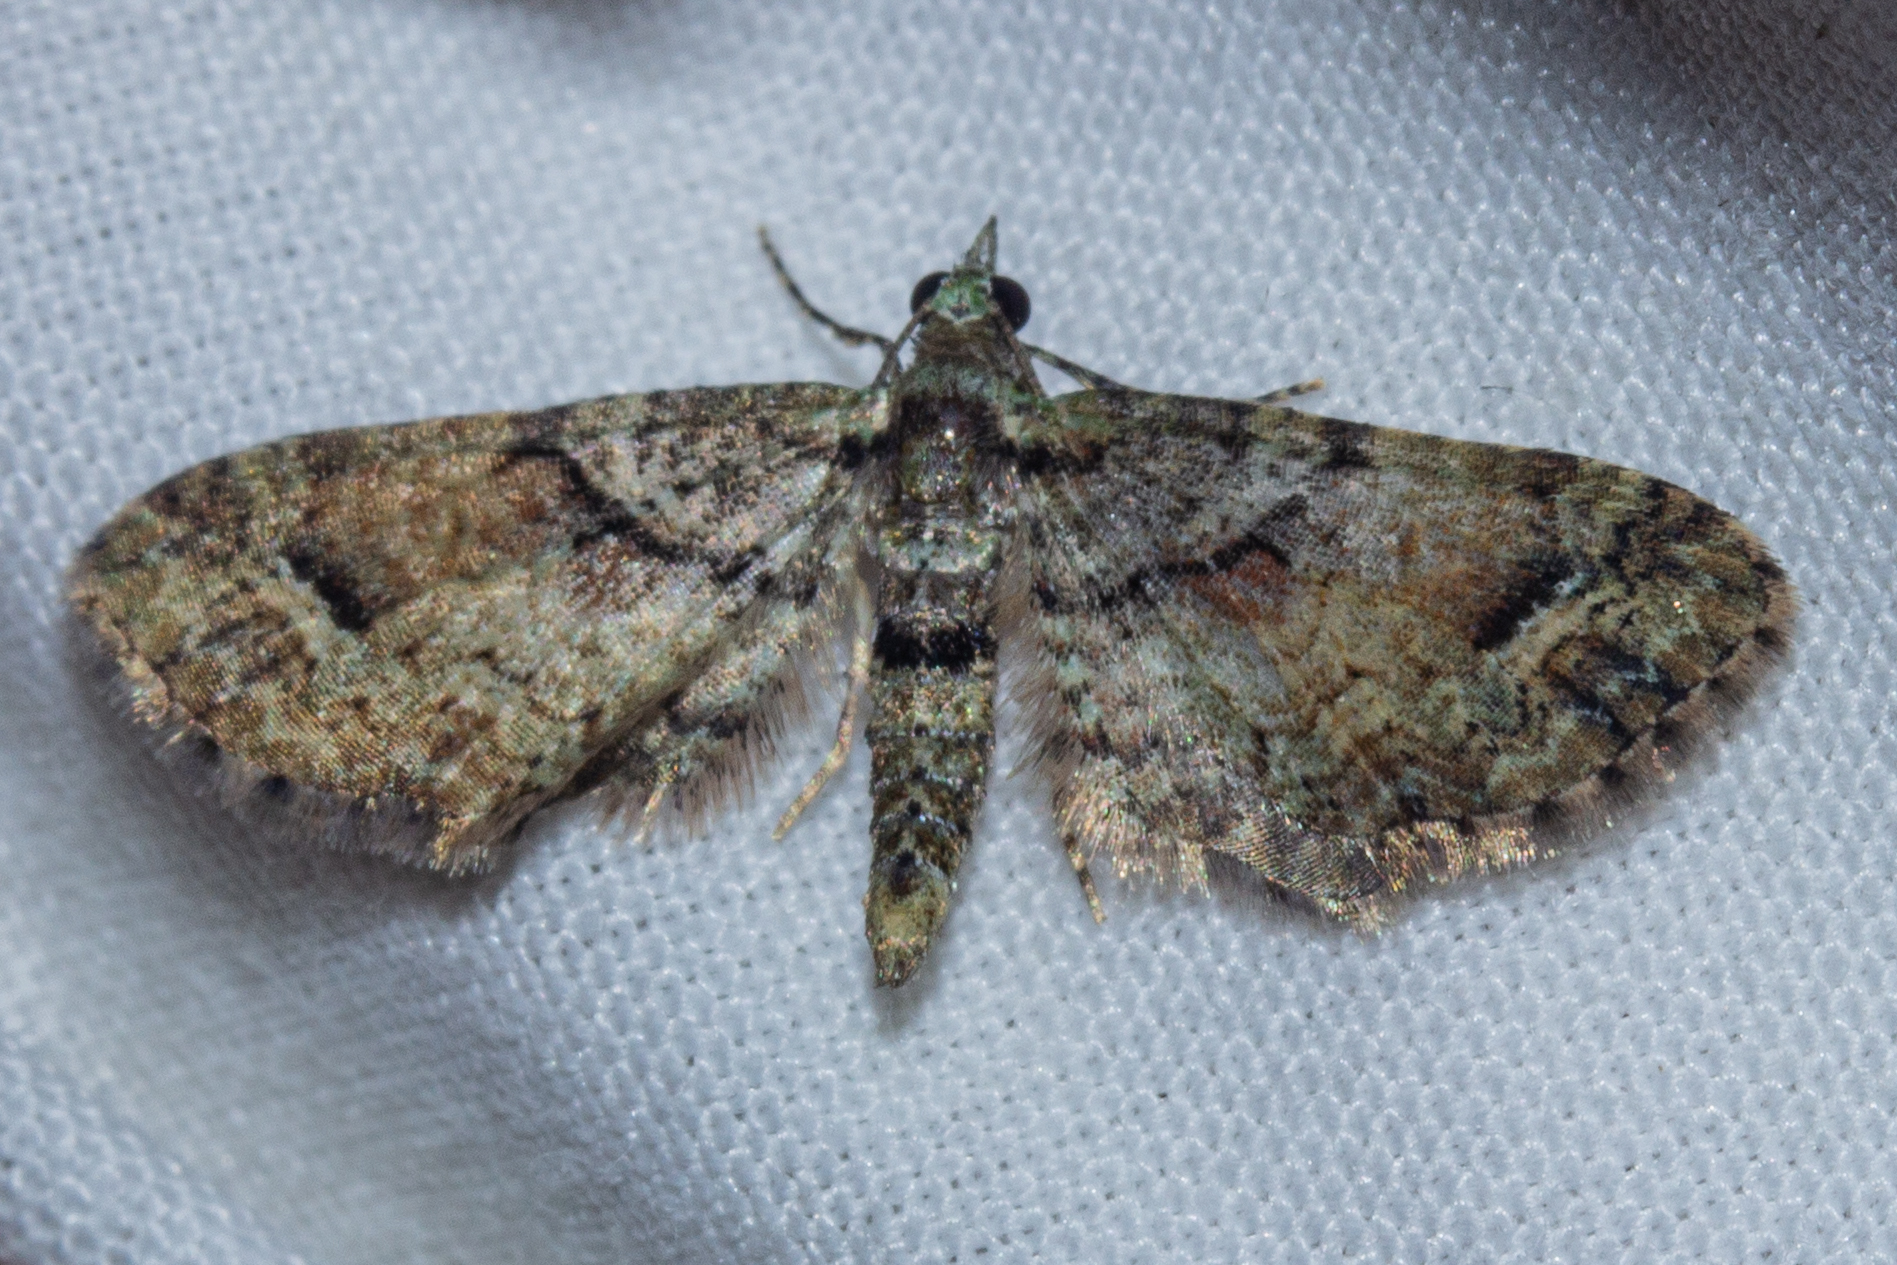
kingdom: Animalia
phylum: Arthropoda
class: Insecta
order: Lepidoptera
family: Geometridae
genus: Idaea
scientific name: Idaea mutanda
